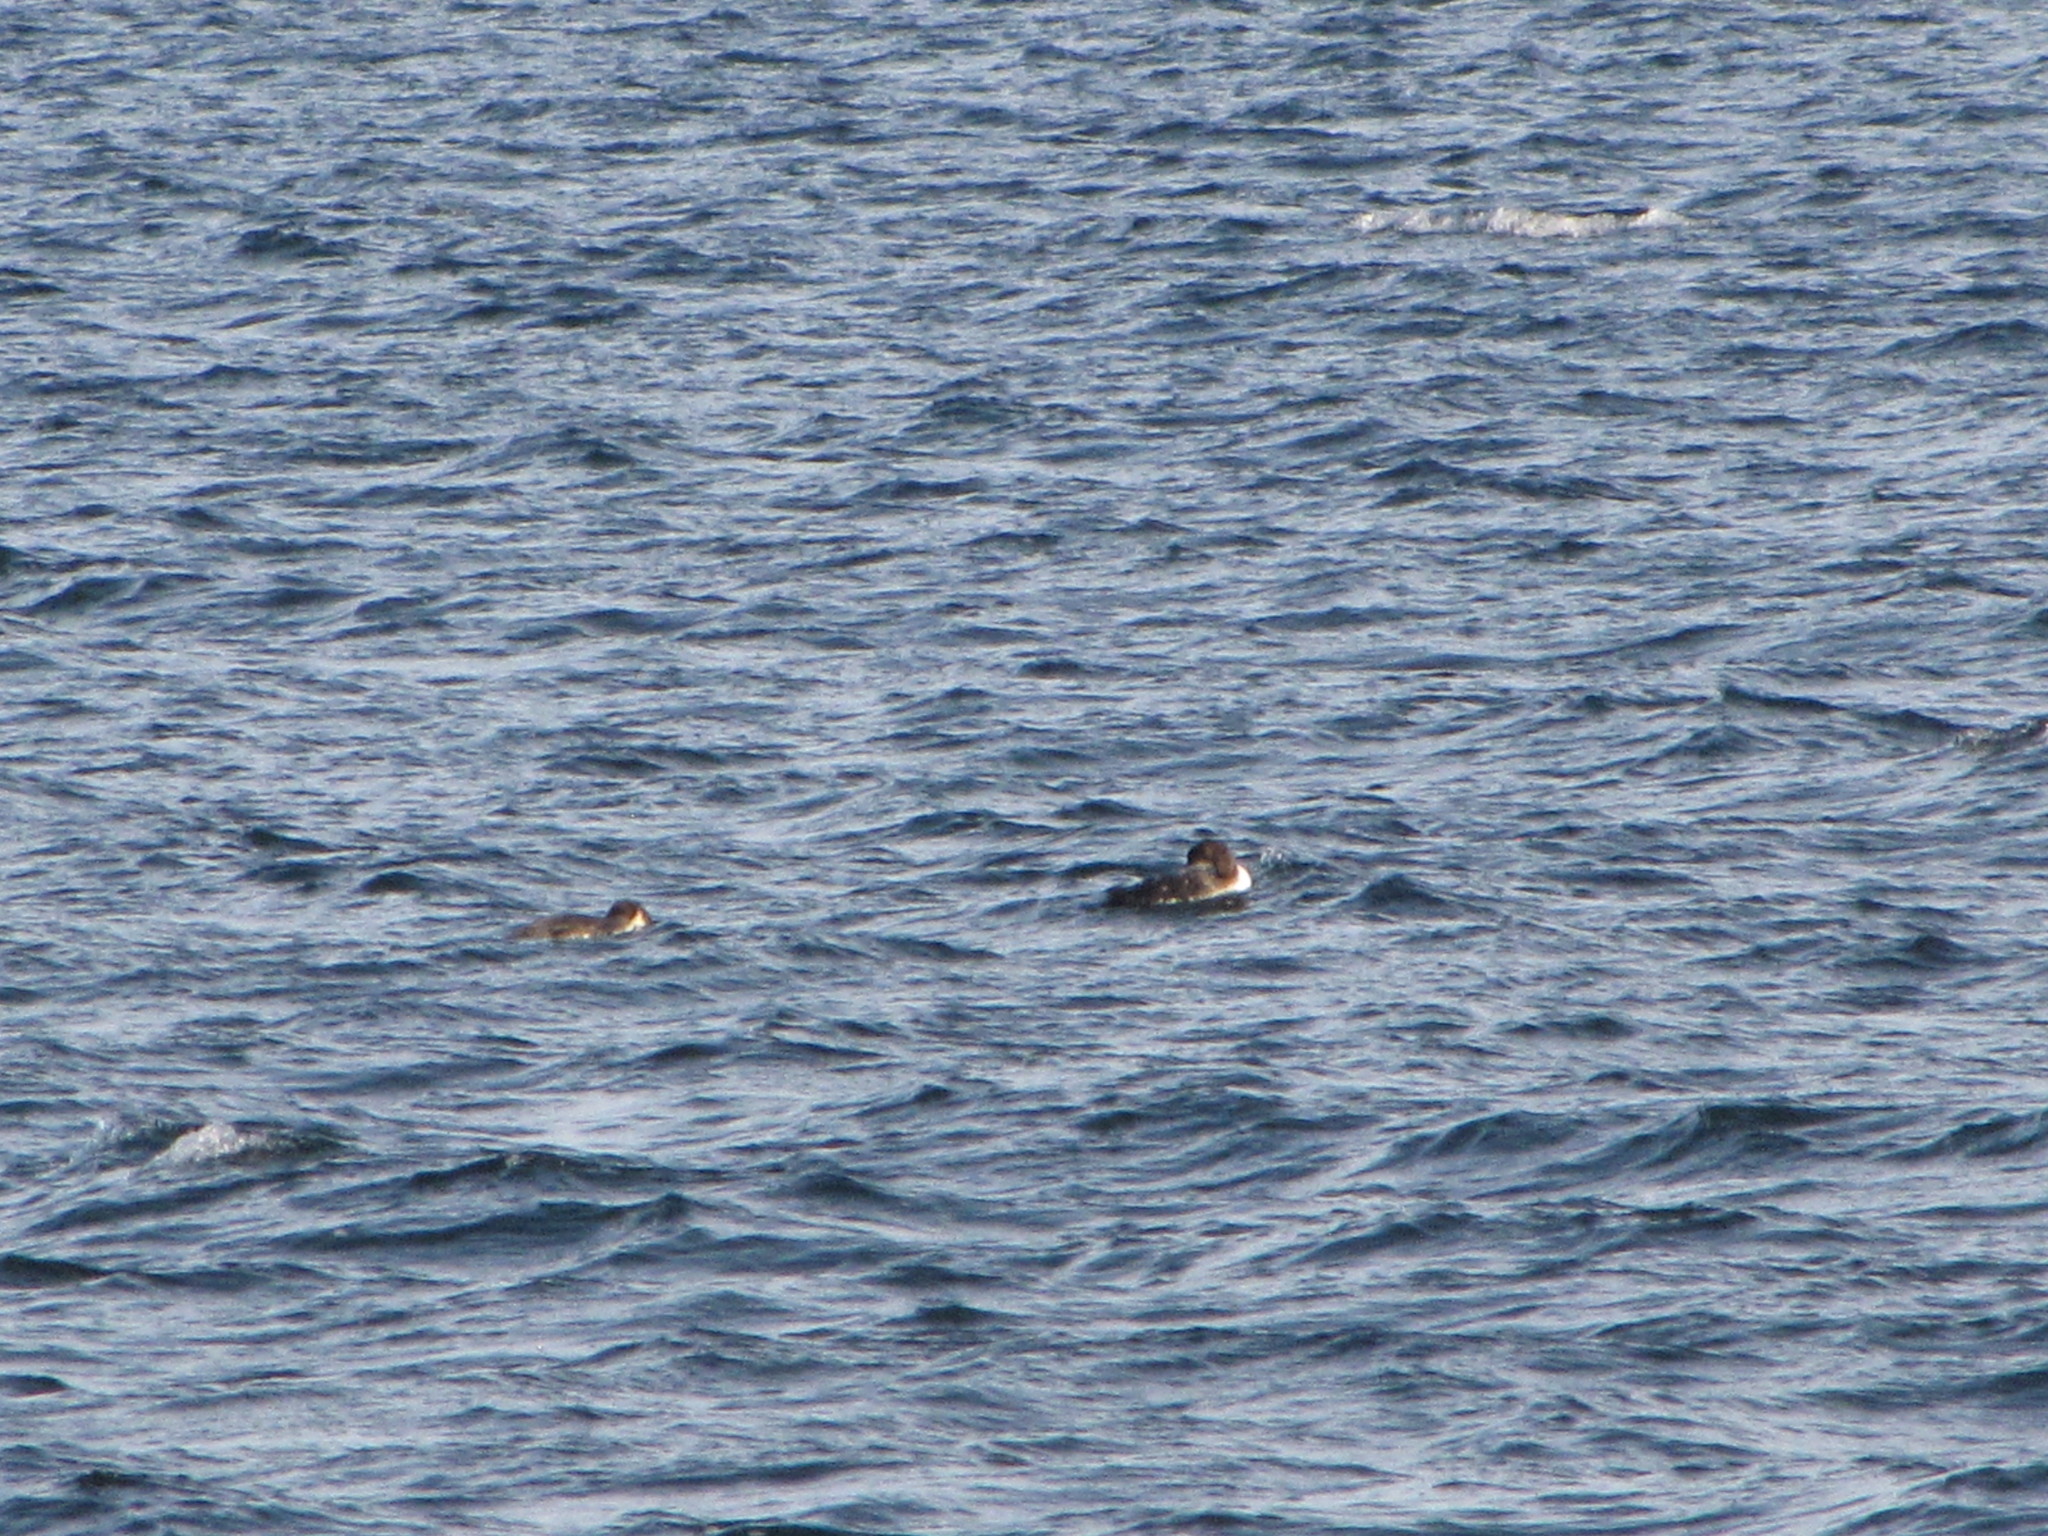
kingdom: Animalia
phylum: Chordata
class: Aves
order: Gaviiformes
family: Gaviidae
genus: Gavia
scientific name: Gavia immer
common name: Common loon
